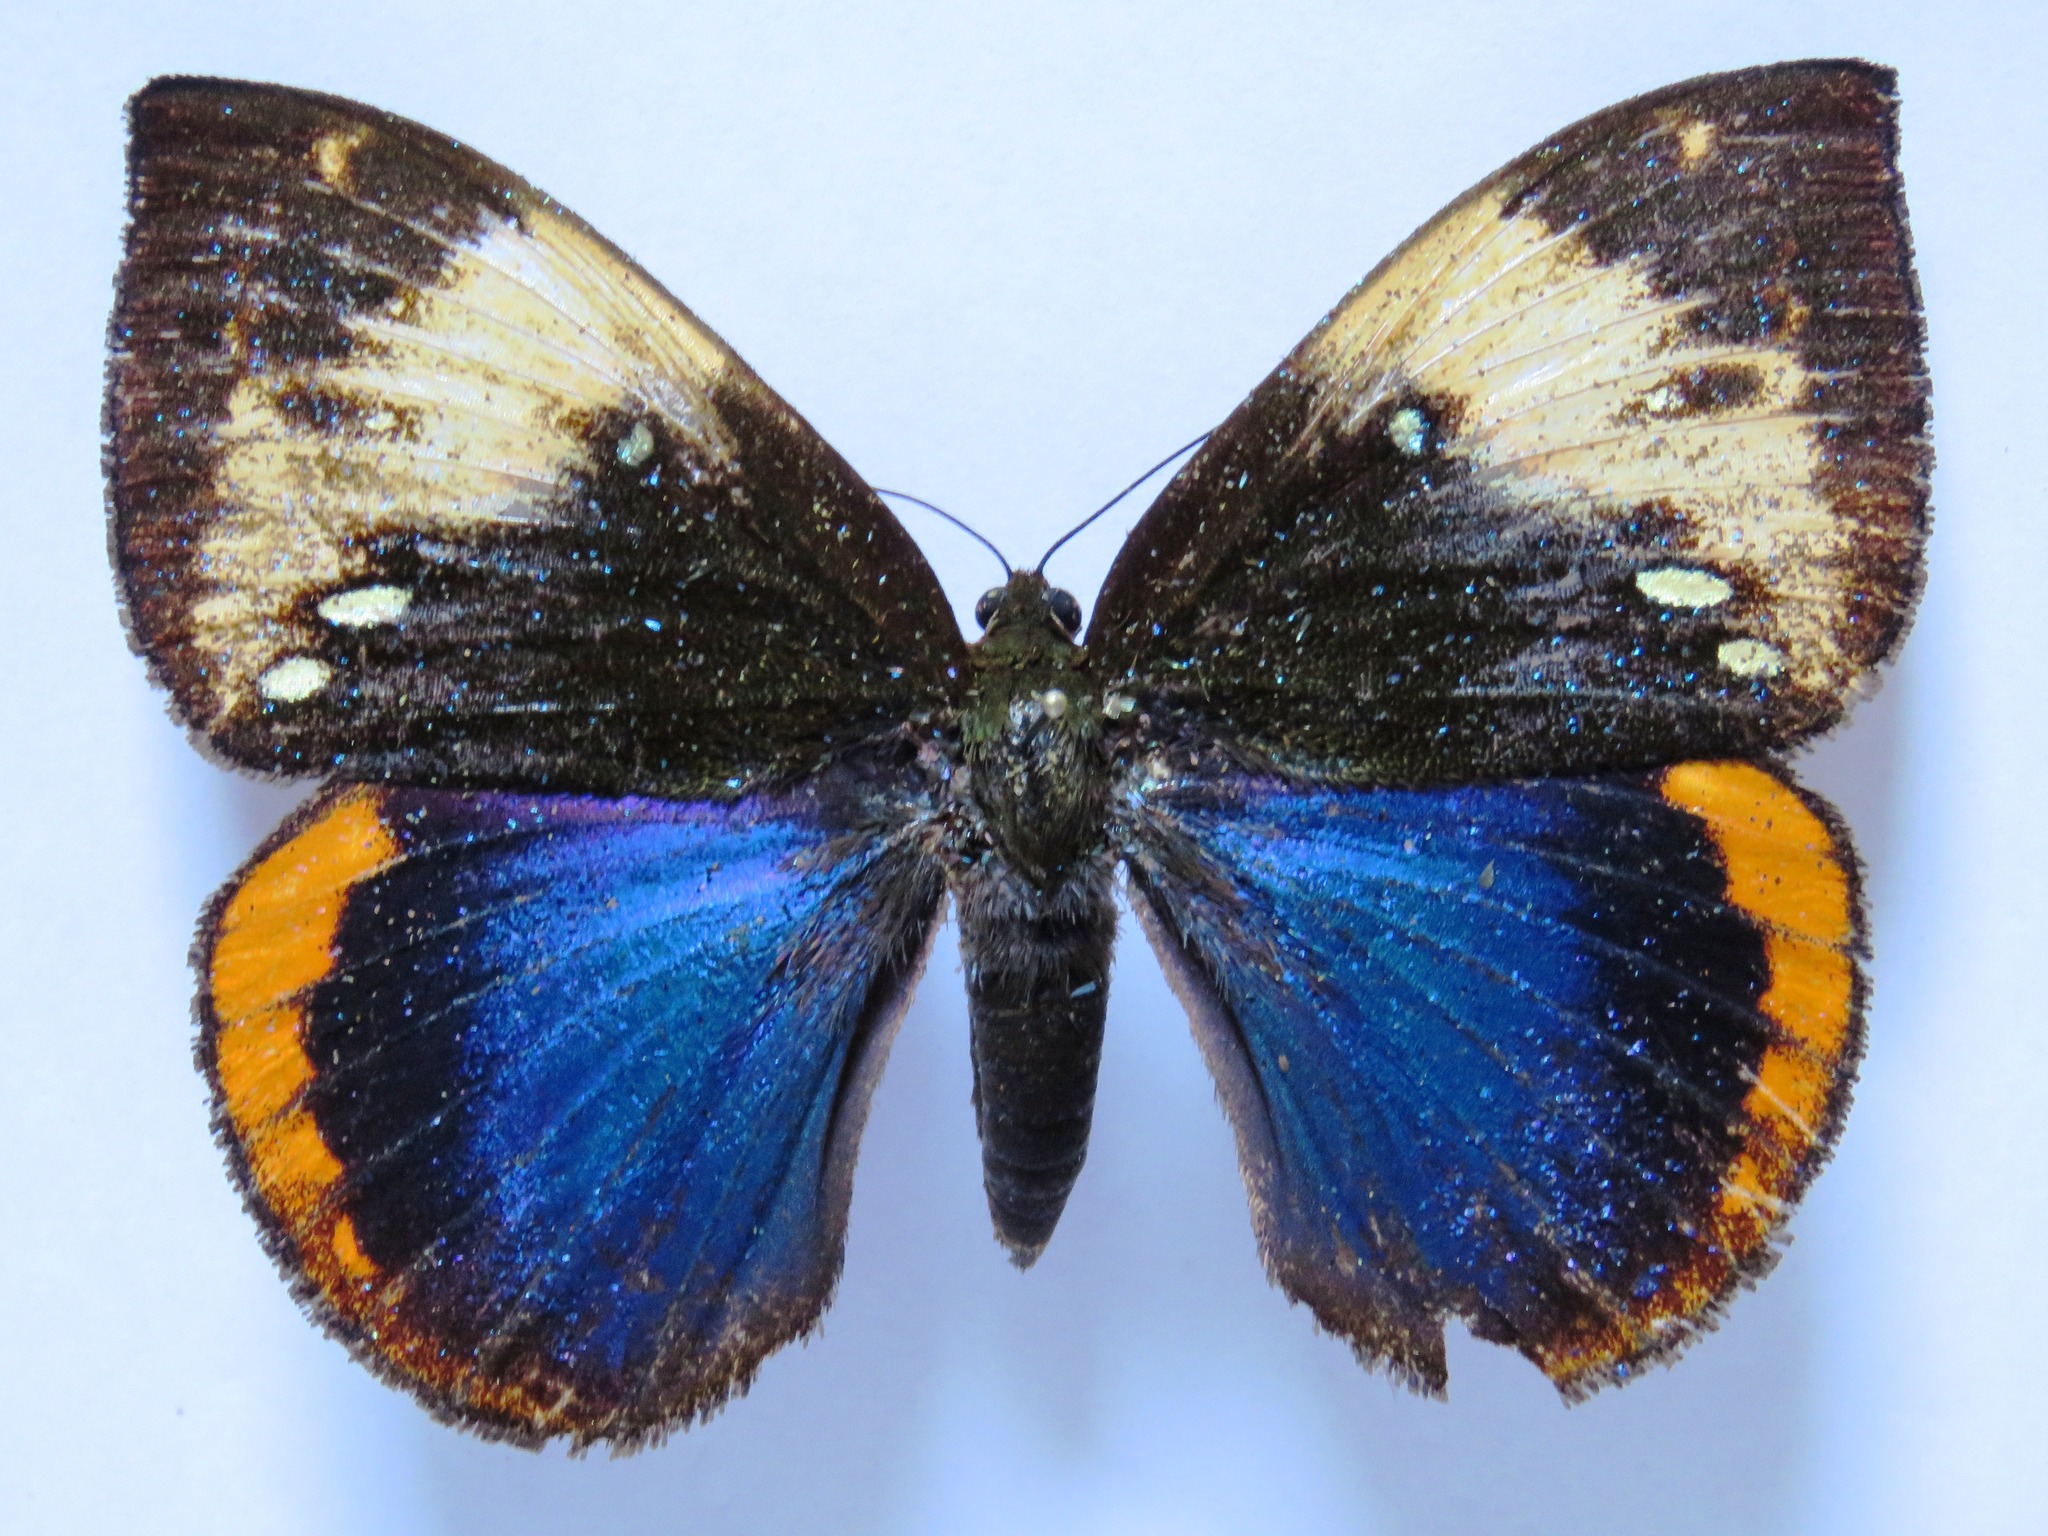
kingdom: Animalia
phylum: Arthropoda
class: Insecta
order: Lepidoptera
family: Castniidae
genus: Divana
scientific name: Divana diva
